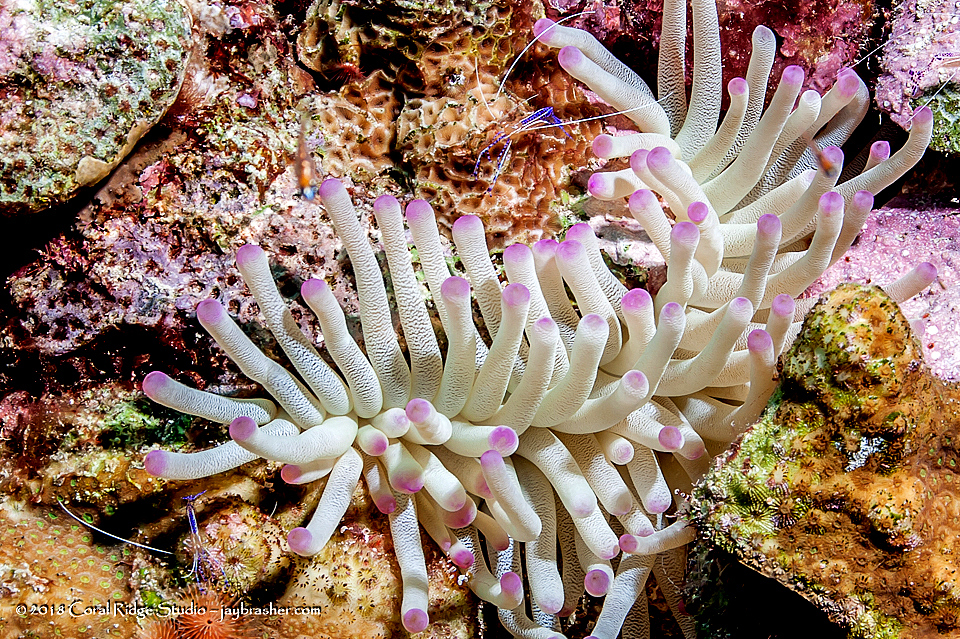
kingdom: Animalia
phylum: Cnidaria
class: Anthozoa
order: Actiniaria
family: Actiniidae
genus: Condylactis
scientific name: Condylactis gigantea
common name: Giant caribbean anemone
